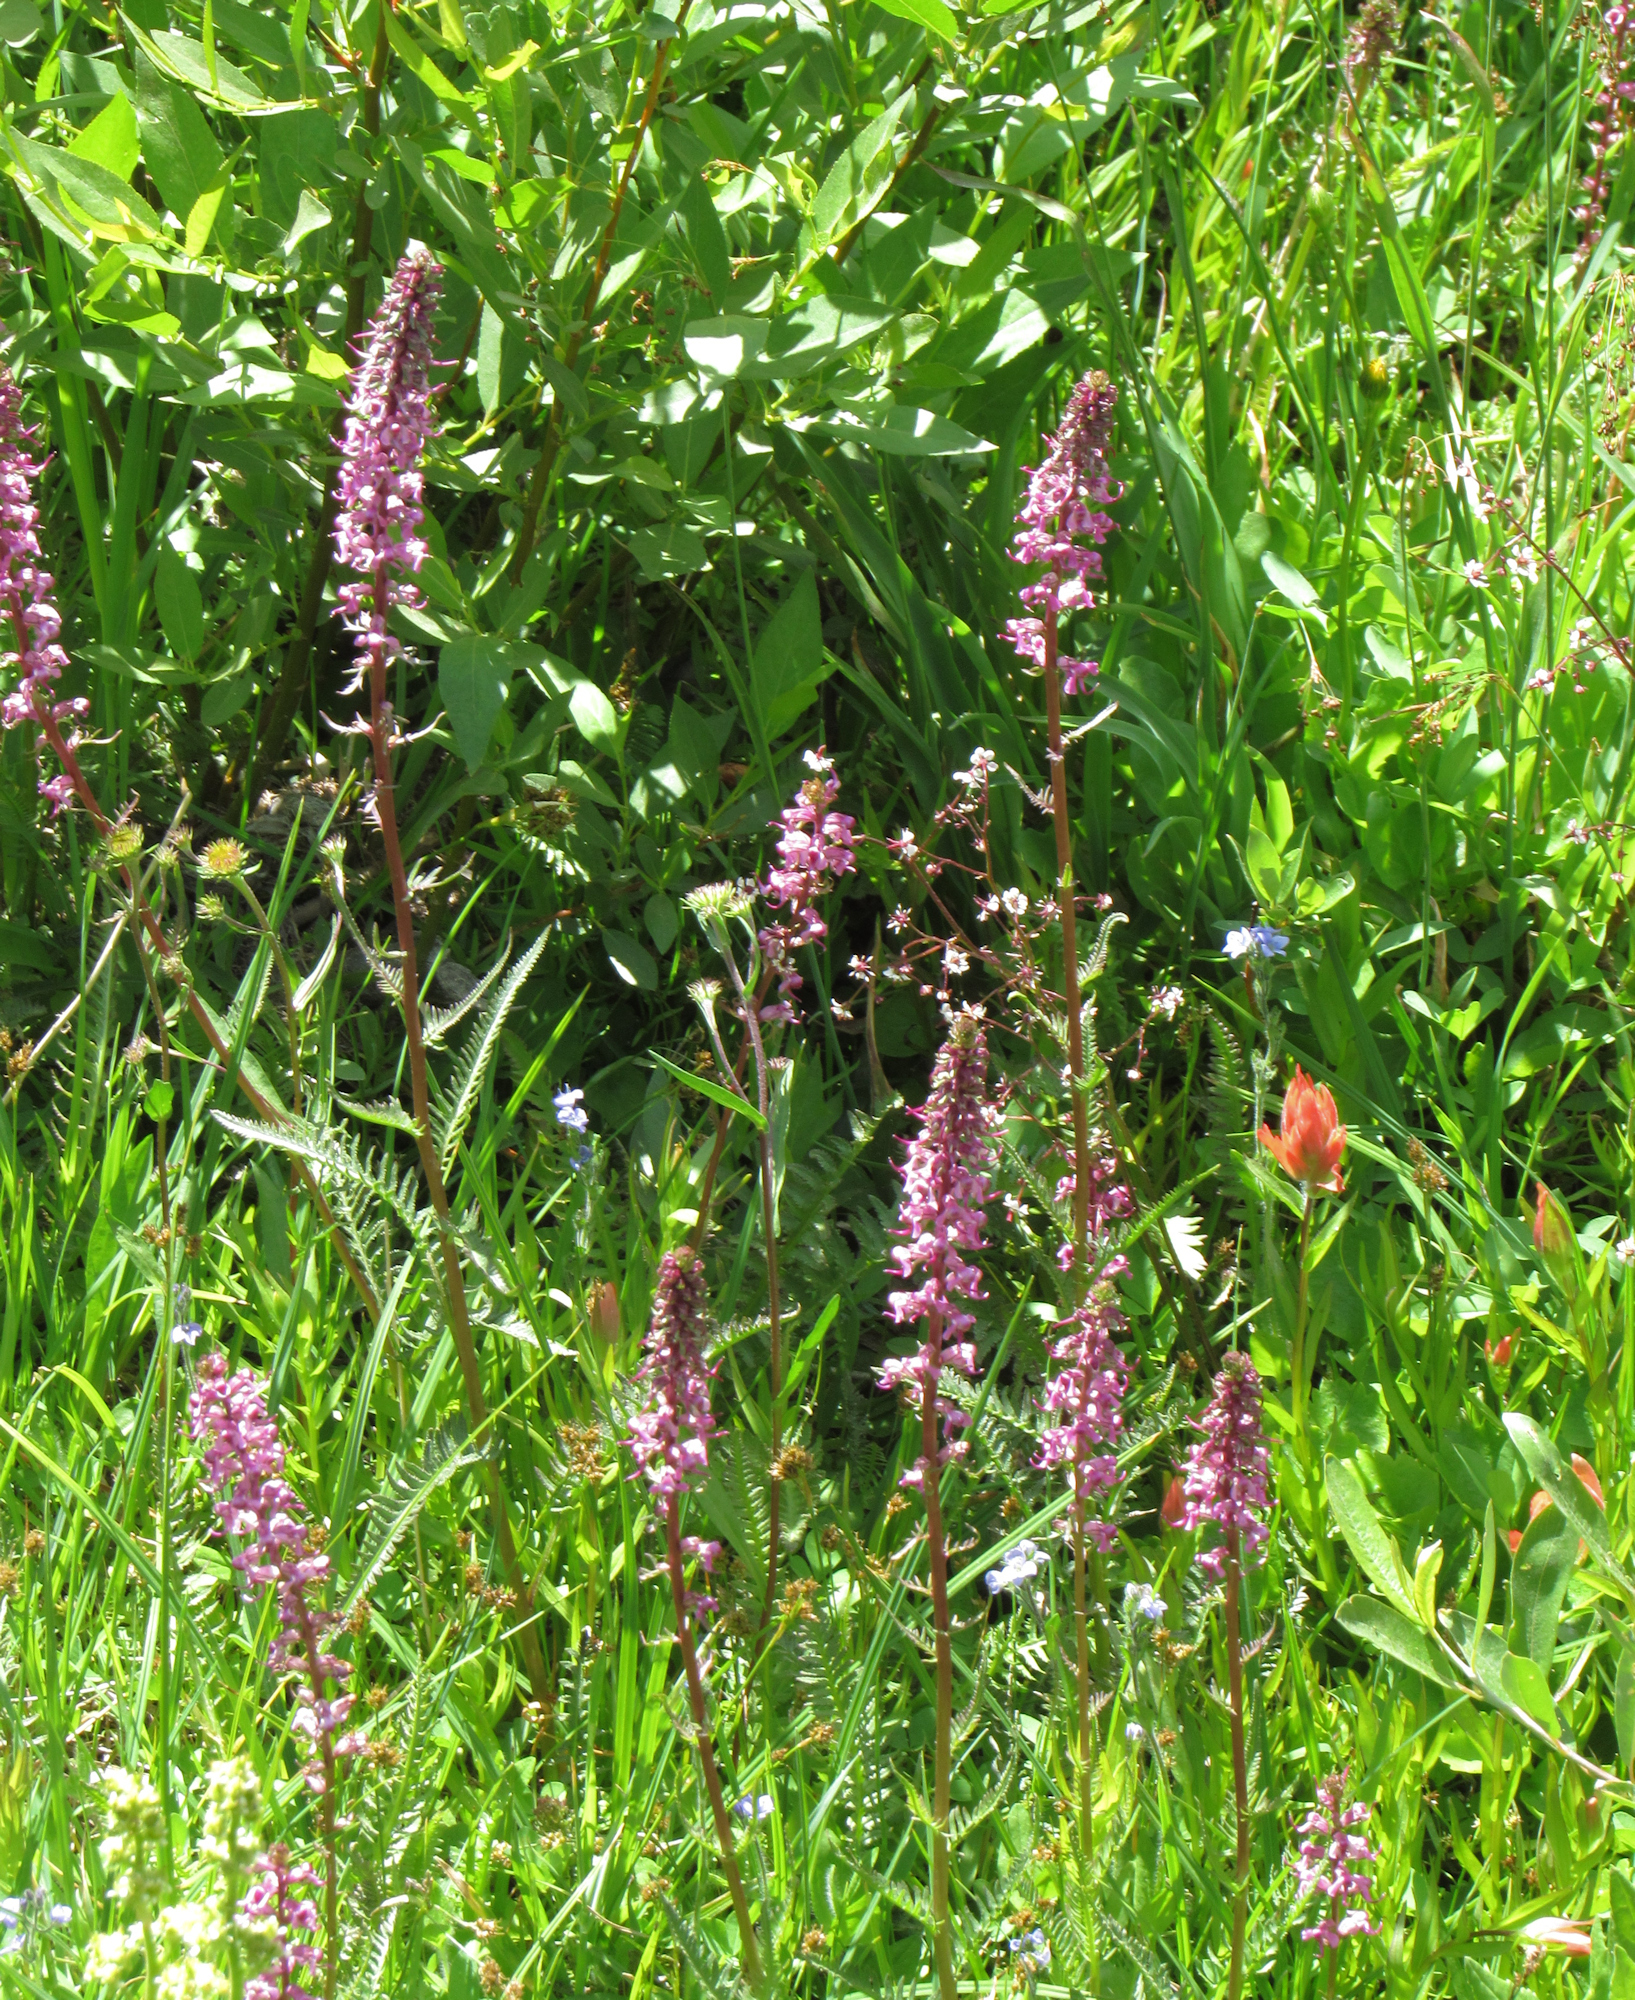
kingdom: Plantae
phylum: Tracheophyta
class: Magnoliopsida
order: Lamiales
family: Orobanchaceae
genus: Pedicularis
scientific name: Pedicularis groenlandica
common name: Elephant's-head
